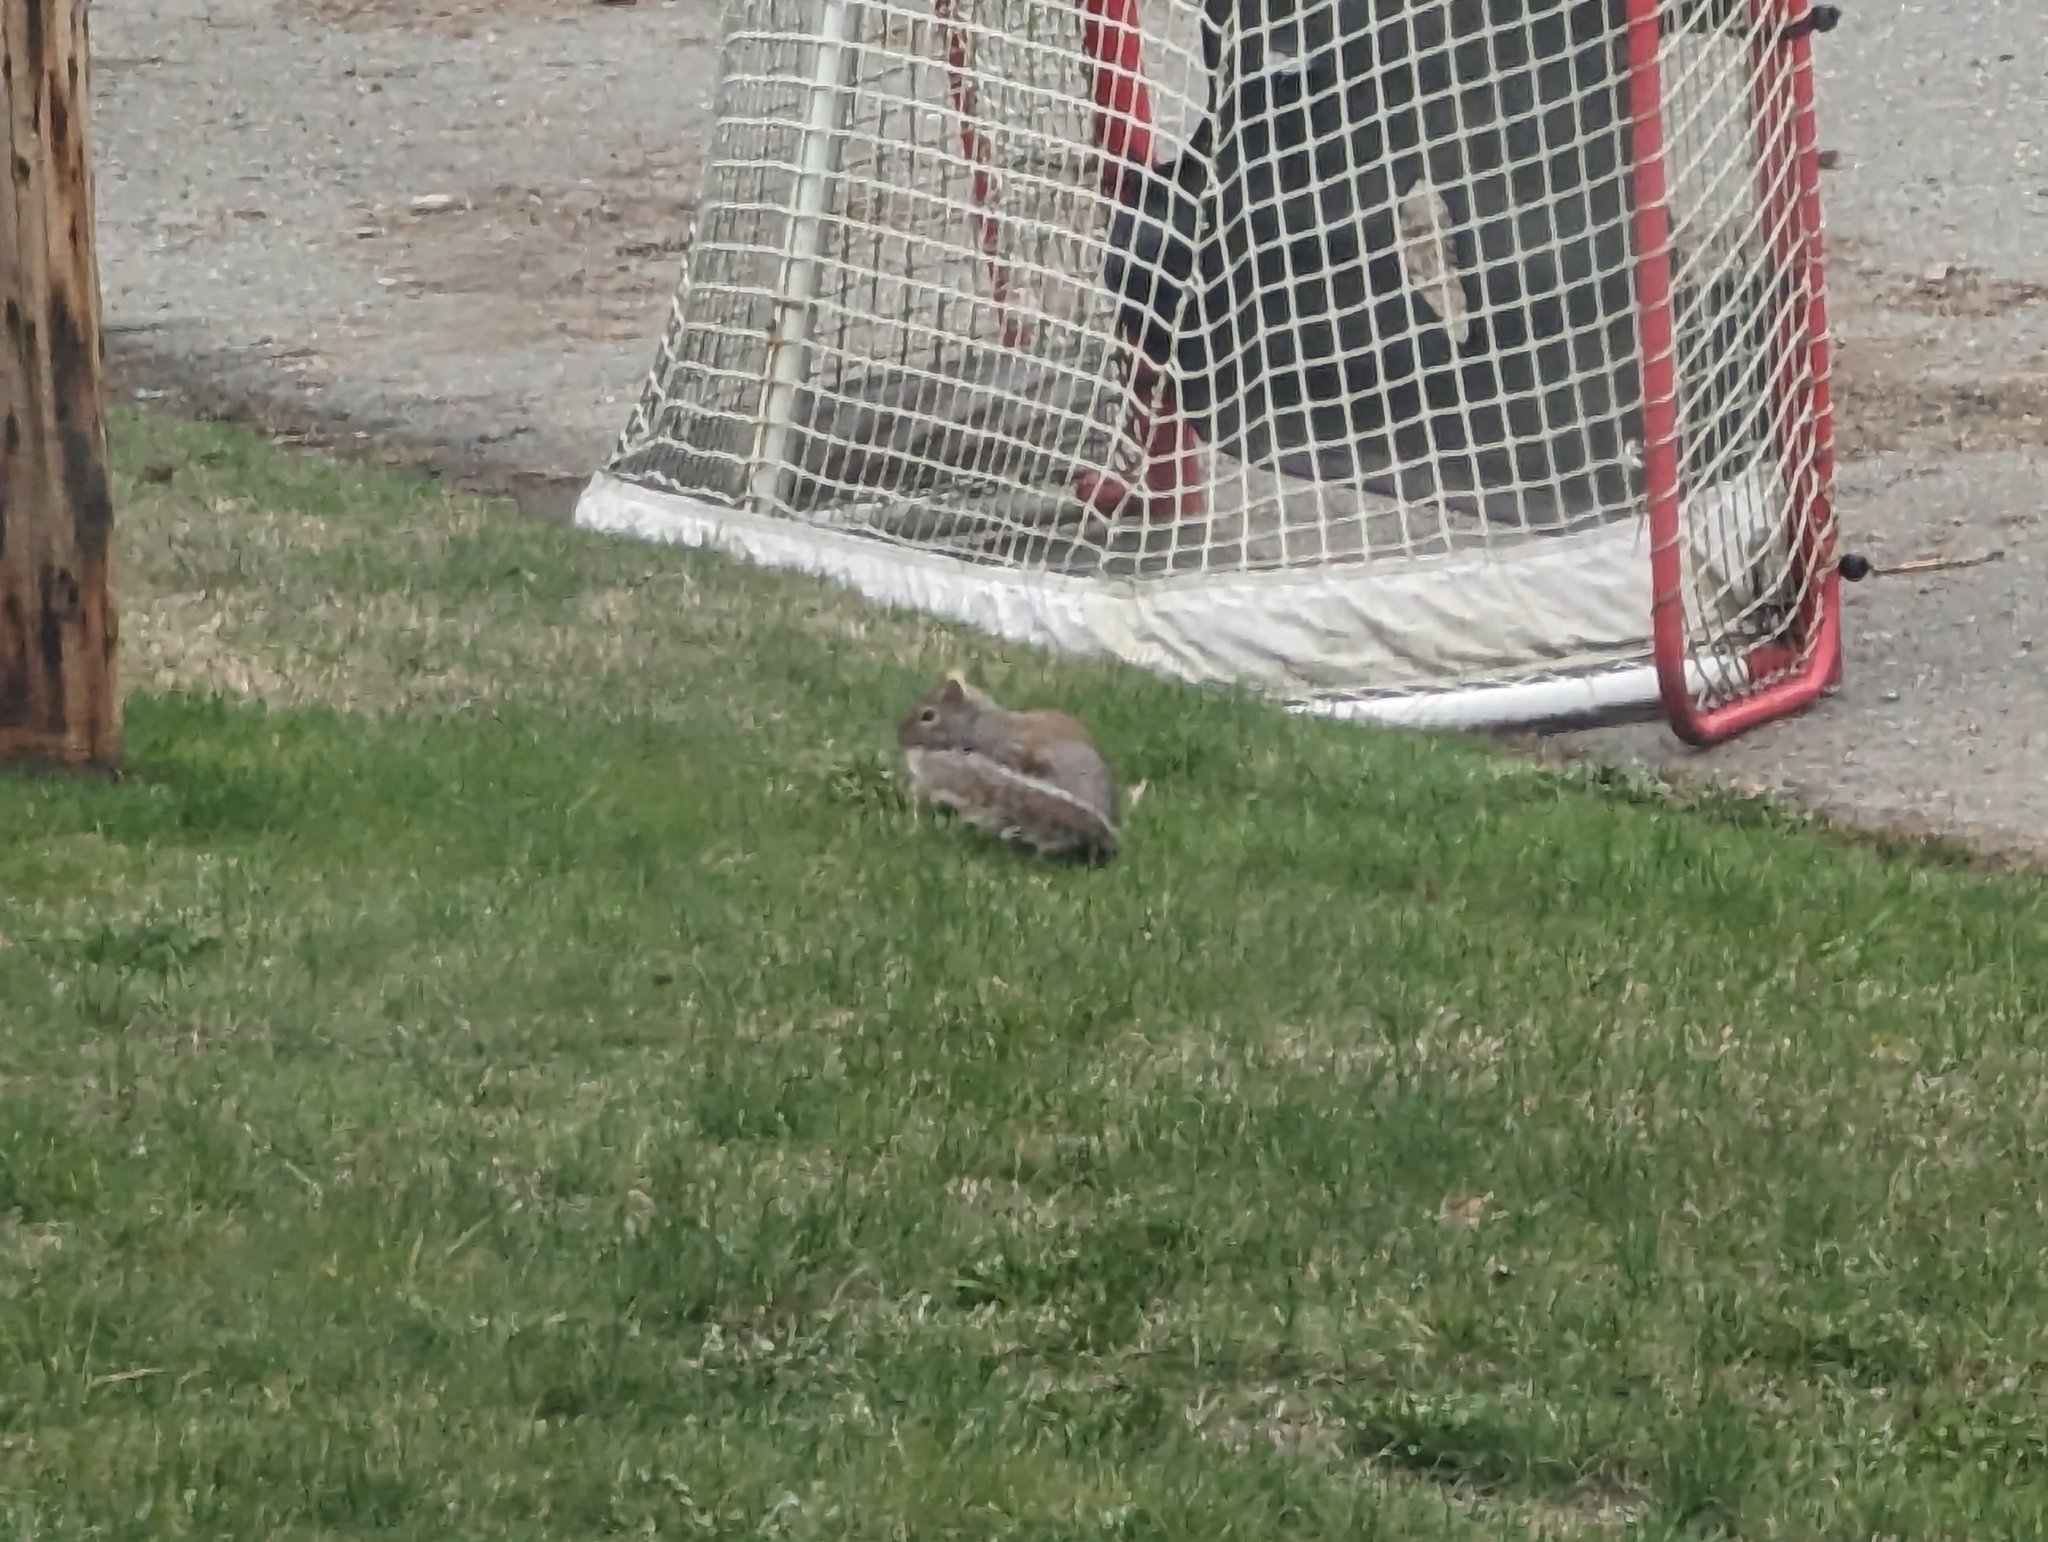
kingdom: Animalia
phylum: Chordata
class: Mammalia
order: Rodentia
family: Sciuridae
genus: Sciurus
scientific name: Sciurus carolinensis
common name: Eastern gray squirrel
